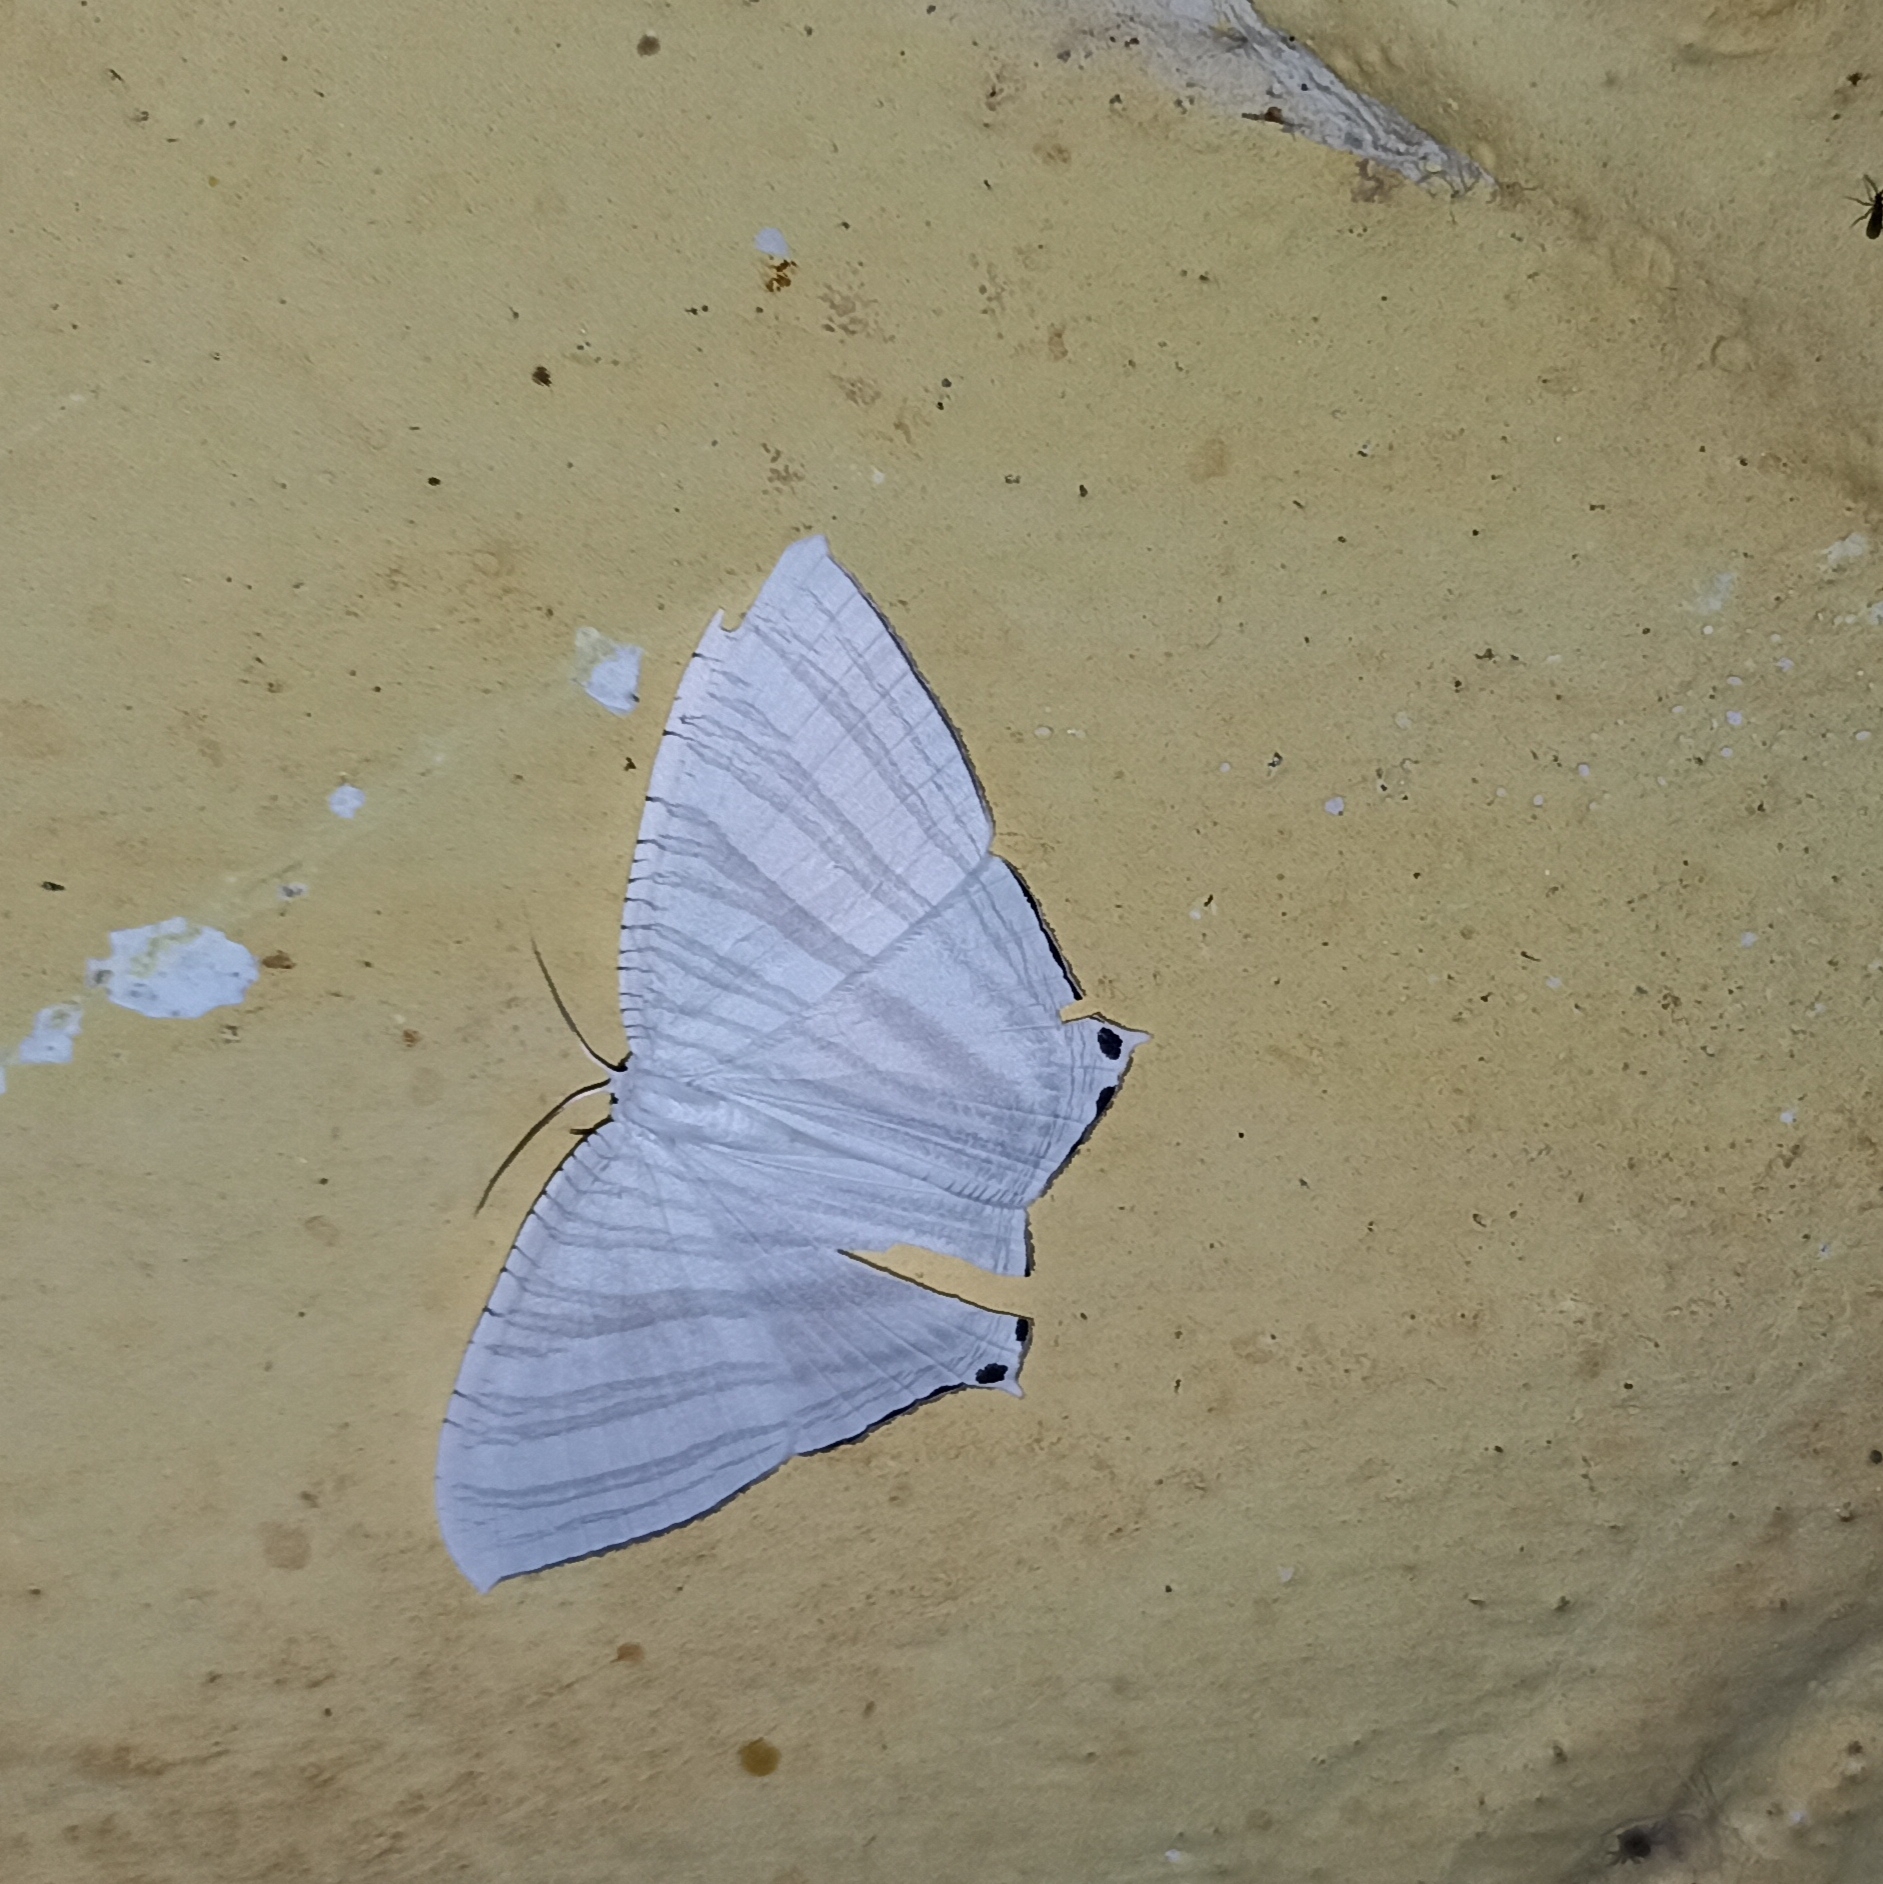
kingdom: Animalia
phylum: Arthropoda
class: Insecta
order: Lepidoptera
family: Uraniidae
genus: Pseudomicronia
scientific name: Pseudomicronia advocataria
